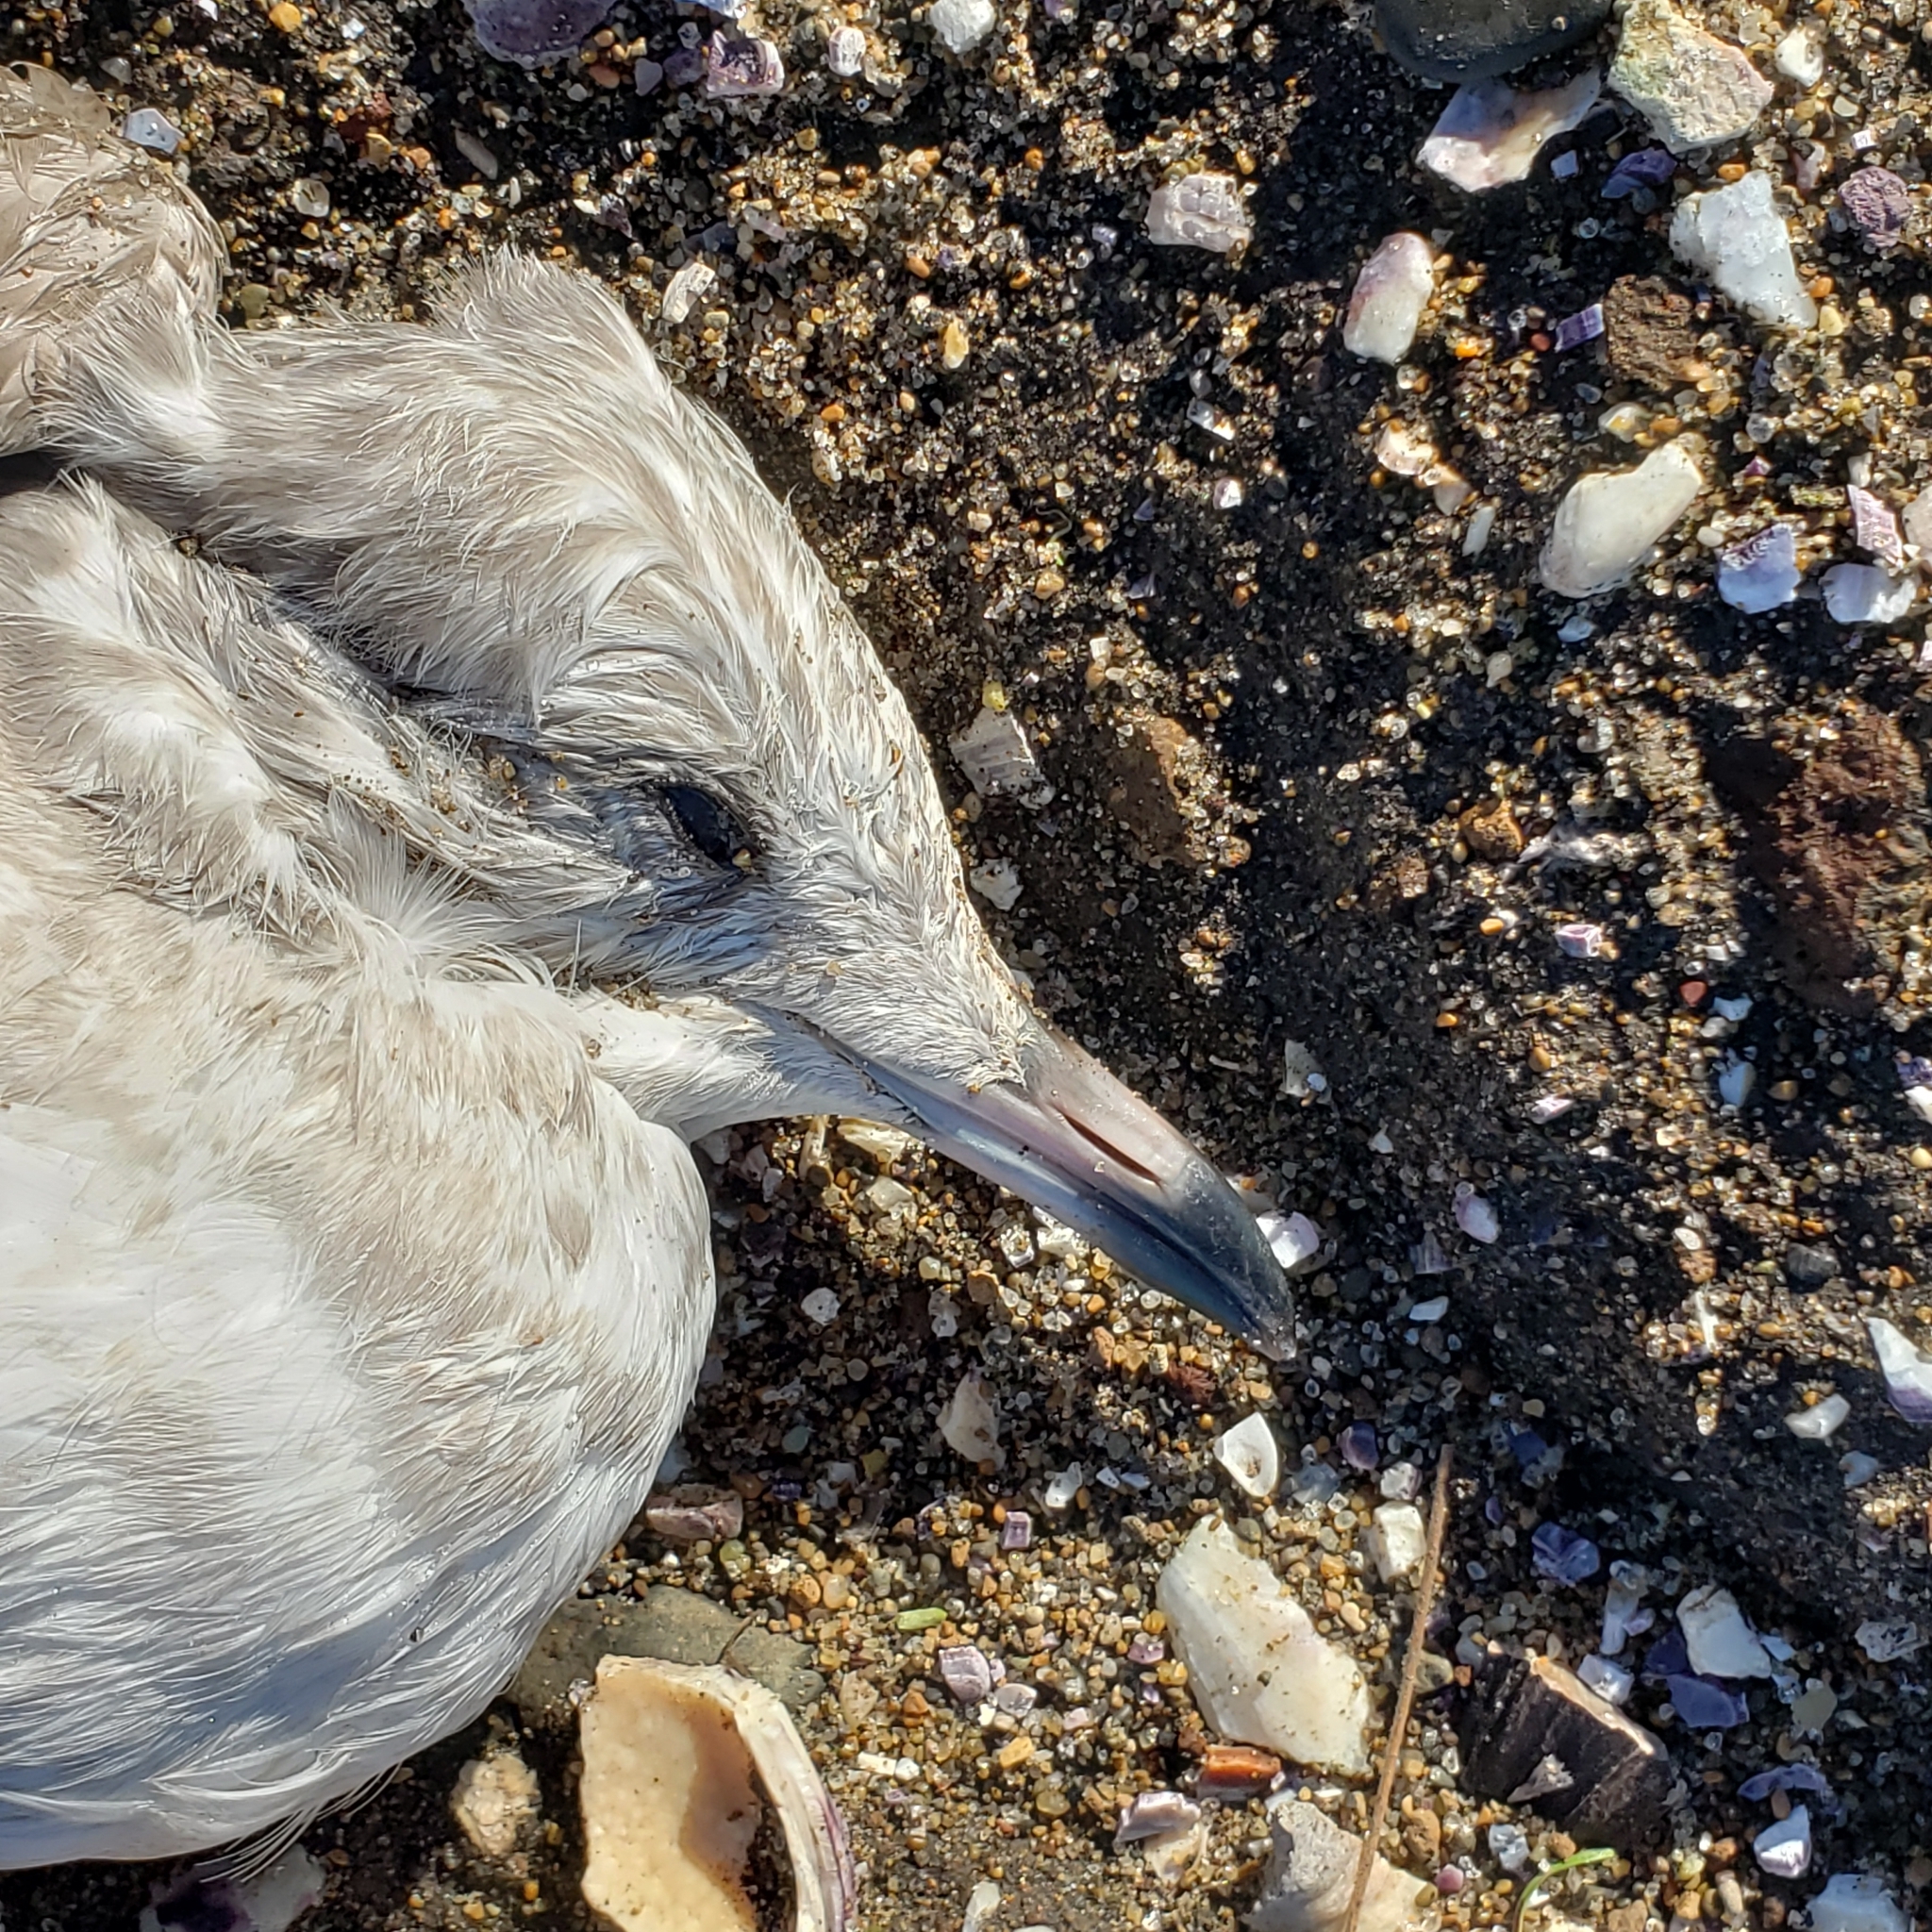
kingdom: Animalia
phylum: Chordata
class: Aves
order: Charadriiformes
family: Laridae
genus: Larus
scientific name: Larus brachyrhynchus
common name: Short-billed gull
